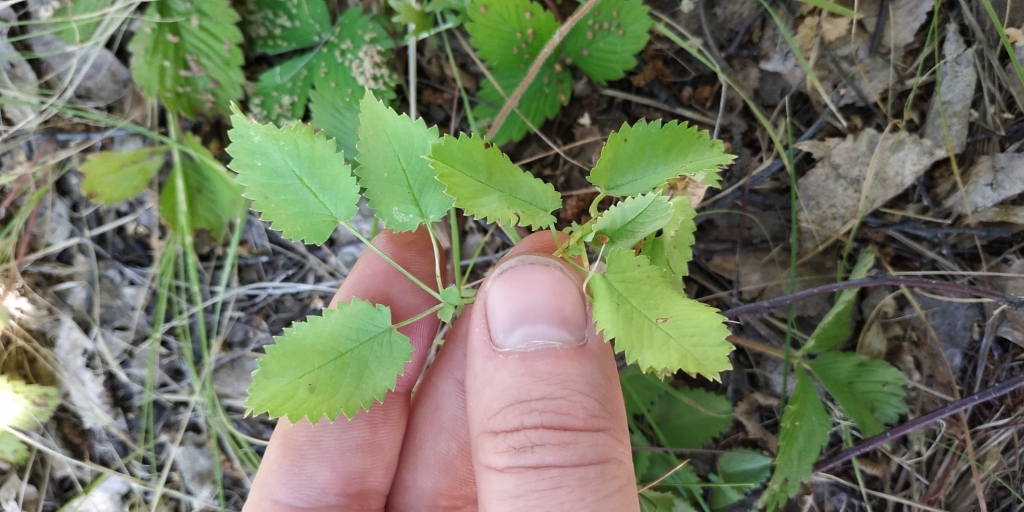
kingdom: Plantae
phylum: Tracheophyta
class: Magnoliopsida
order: Rosales
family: Rosaceae
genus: Sanguisorba
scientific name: Sanguisorba officinalis
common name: Great burnet
